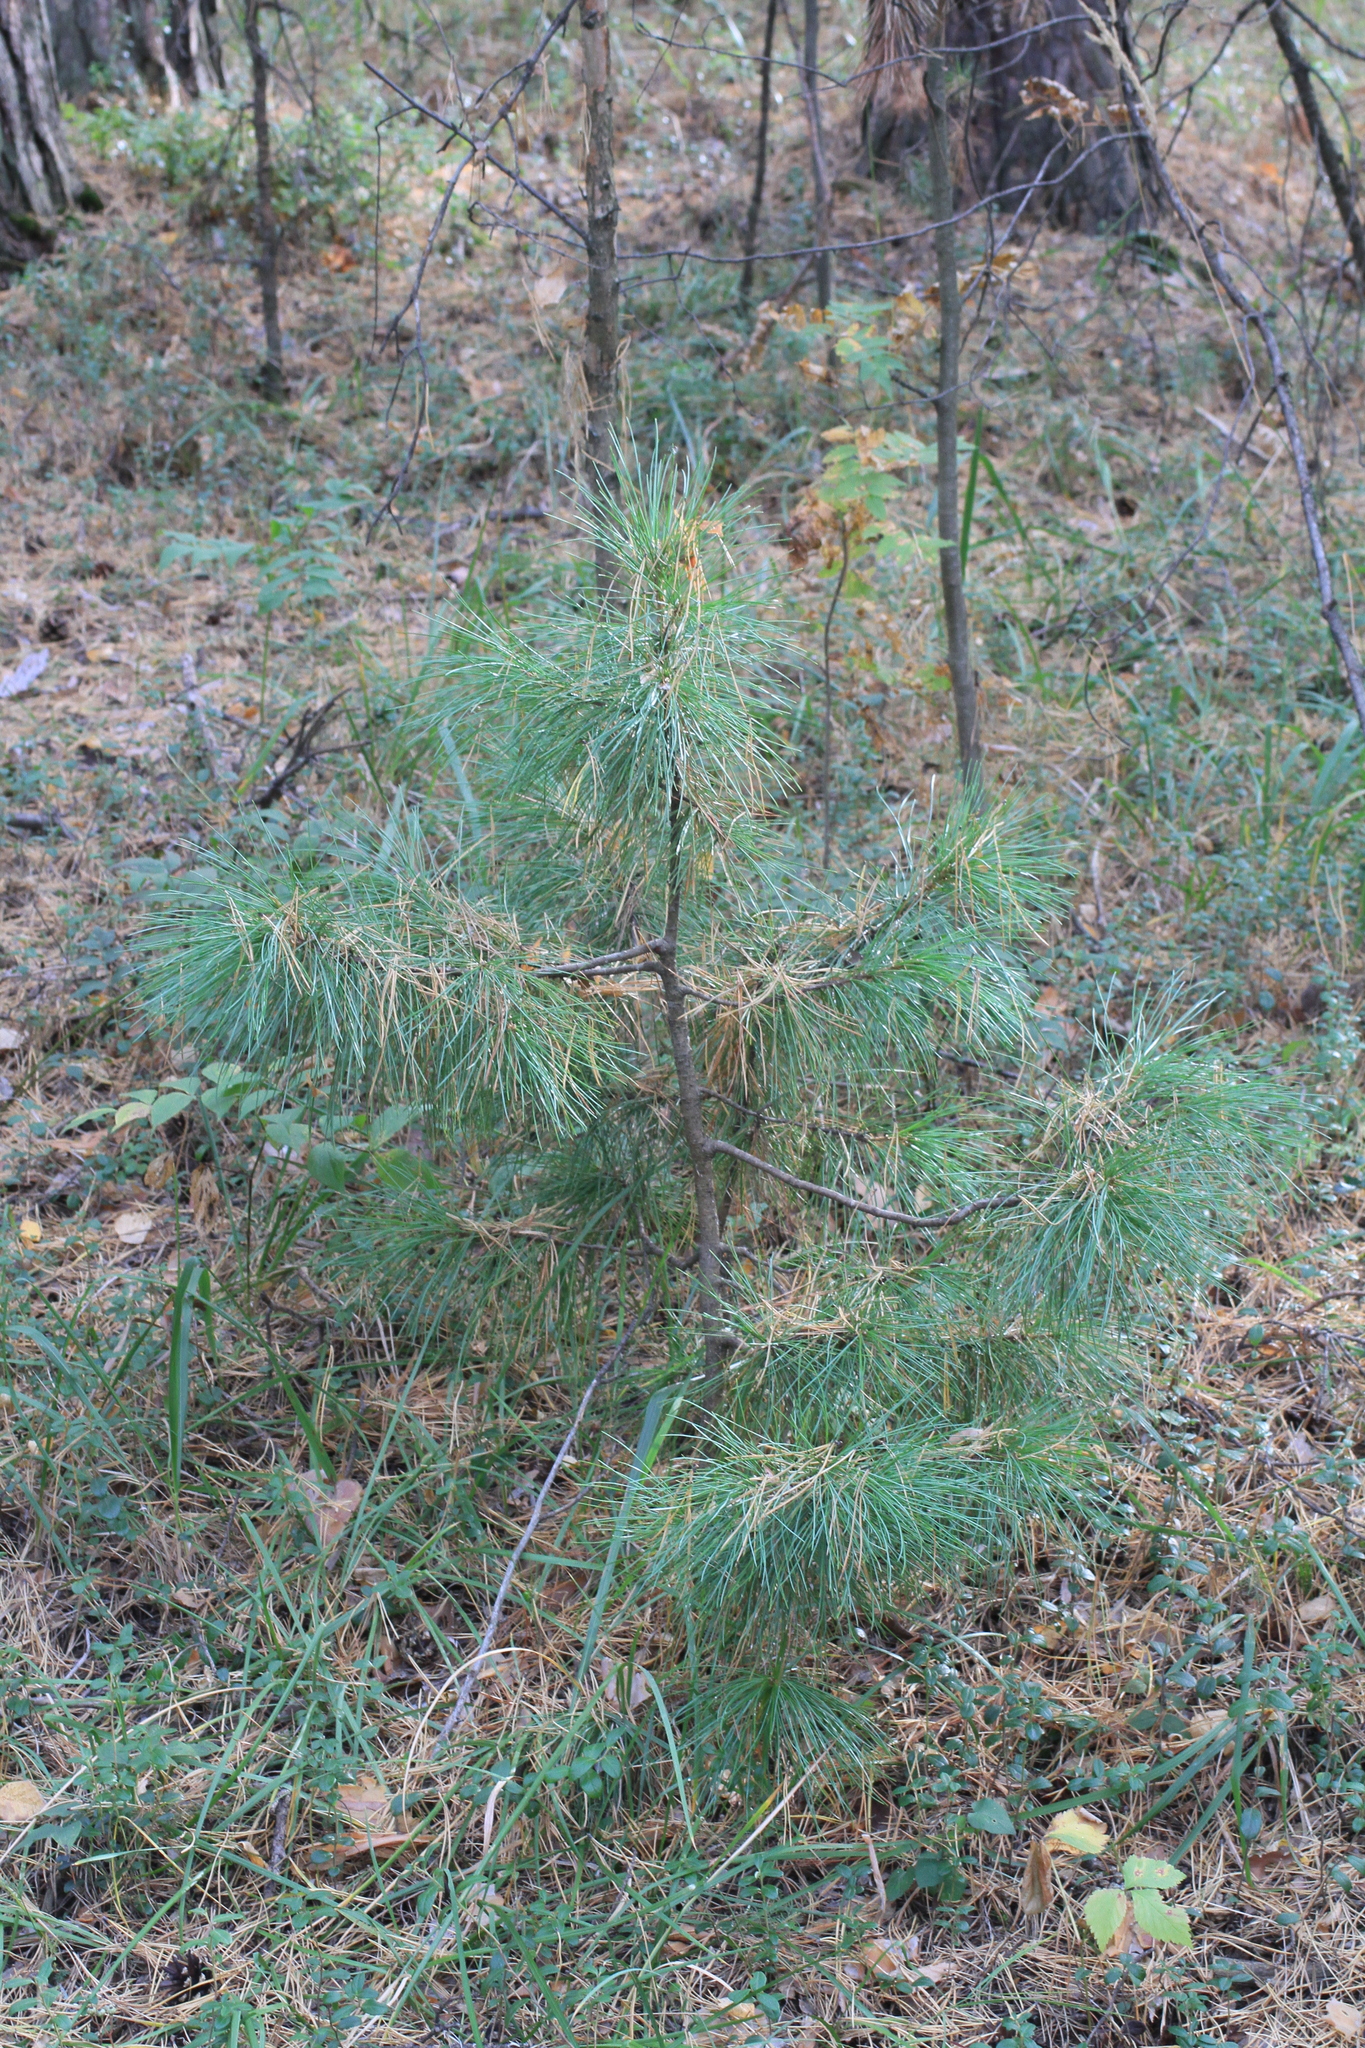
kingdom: Plantae
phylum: Tracheophyta
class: Pinopsida
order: Pinales
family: Pinaceae
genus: Pinus
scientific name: Pinus sibirica
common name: Siberian pine
